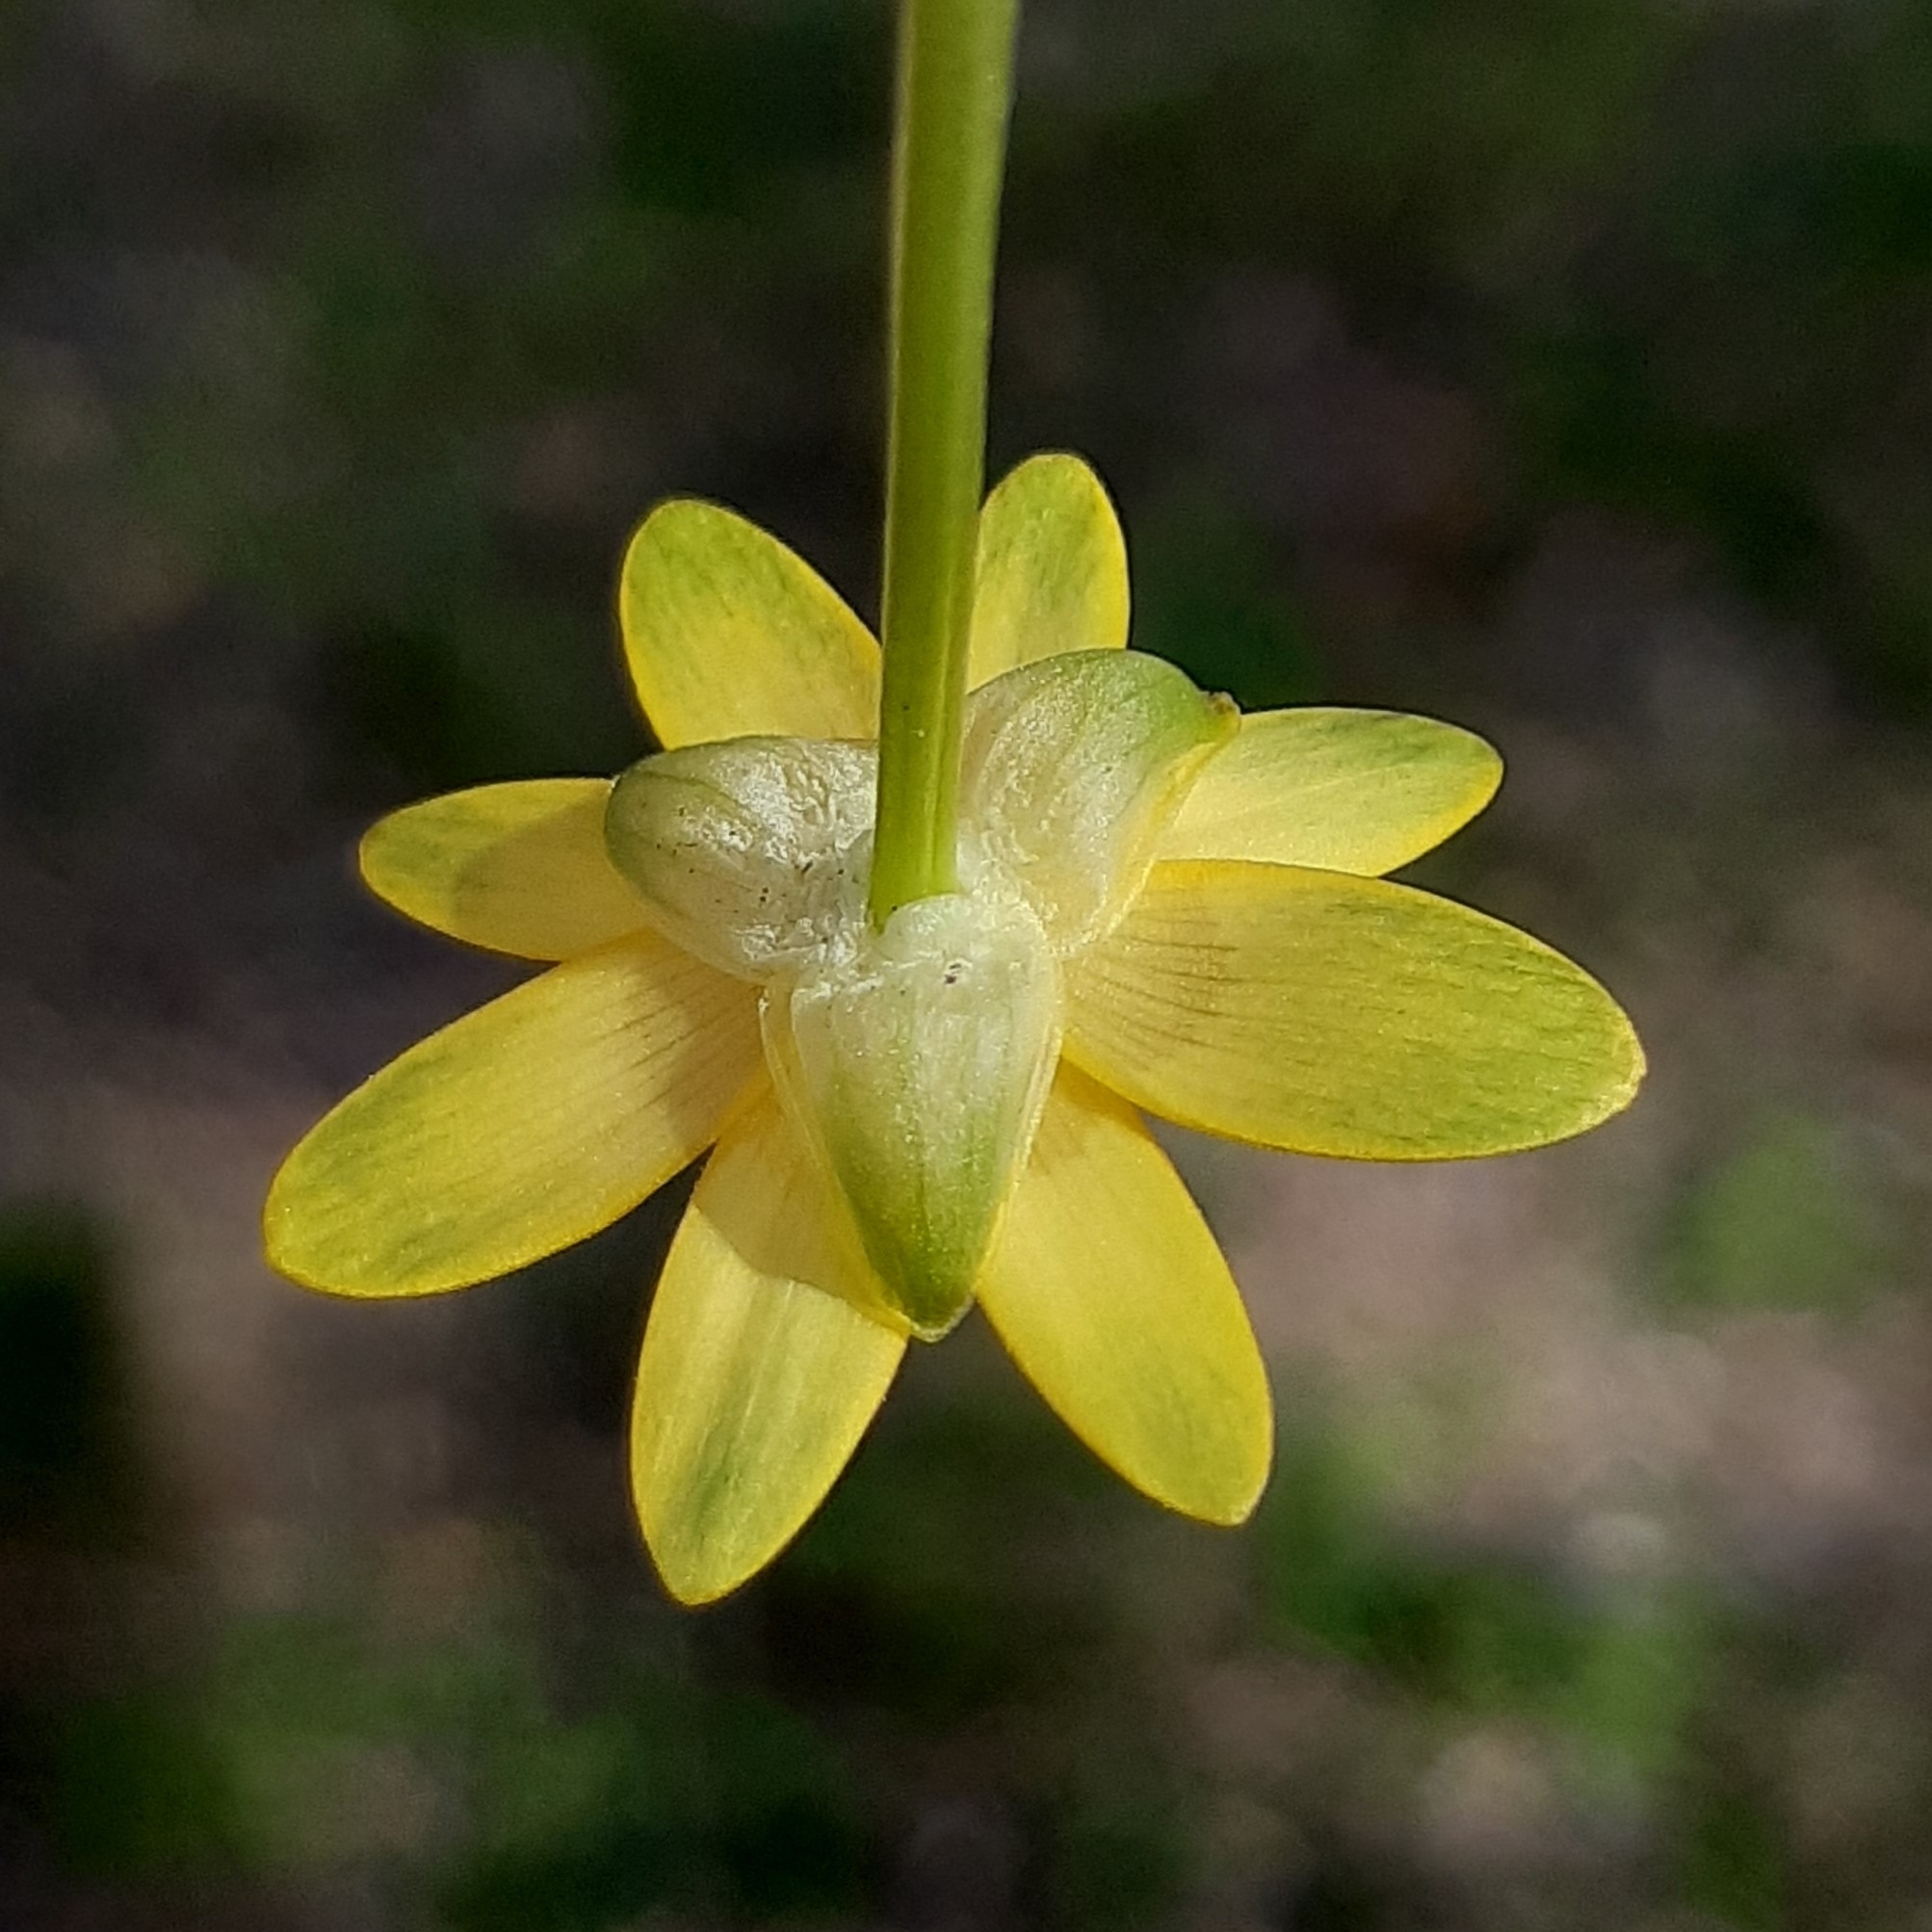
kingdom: Plantae
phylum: Tracheophyta
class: Magnoliopsida
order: Ranunculales
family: Ranunculaceae
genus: Ficaria
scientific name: Ficaria verna
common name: Lesser celandine
